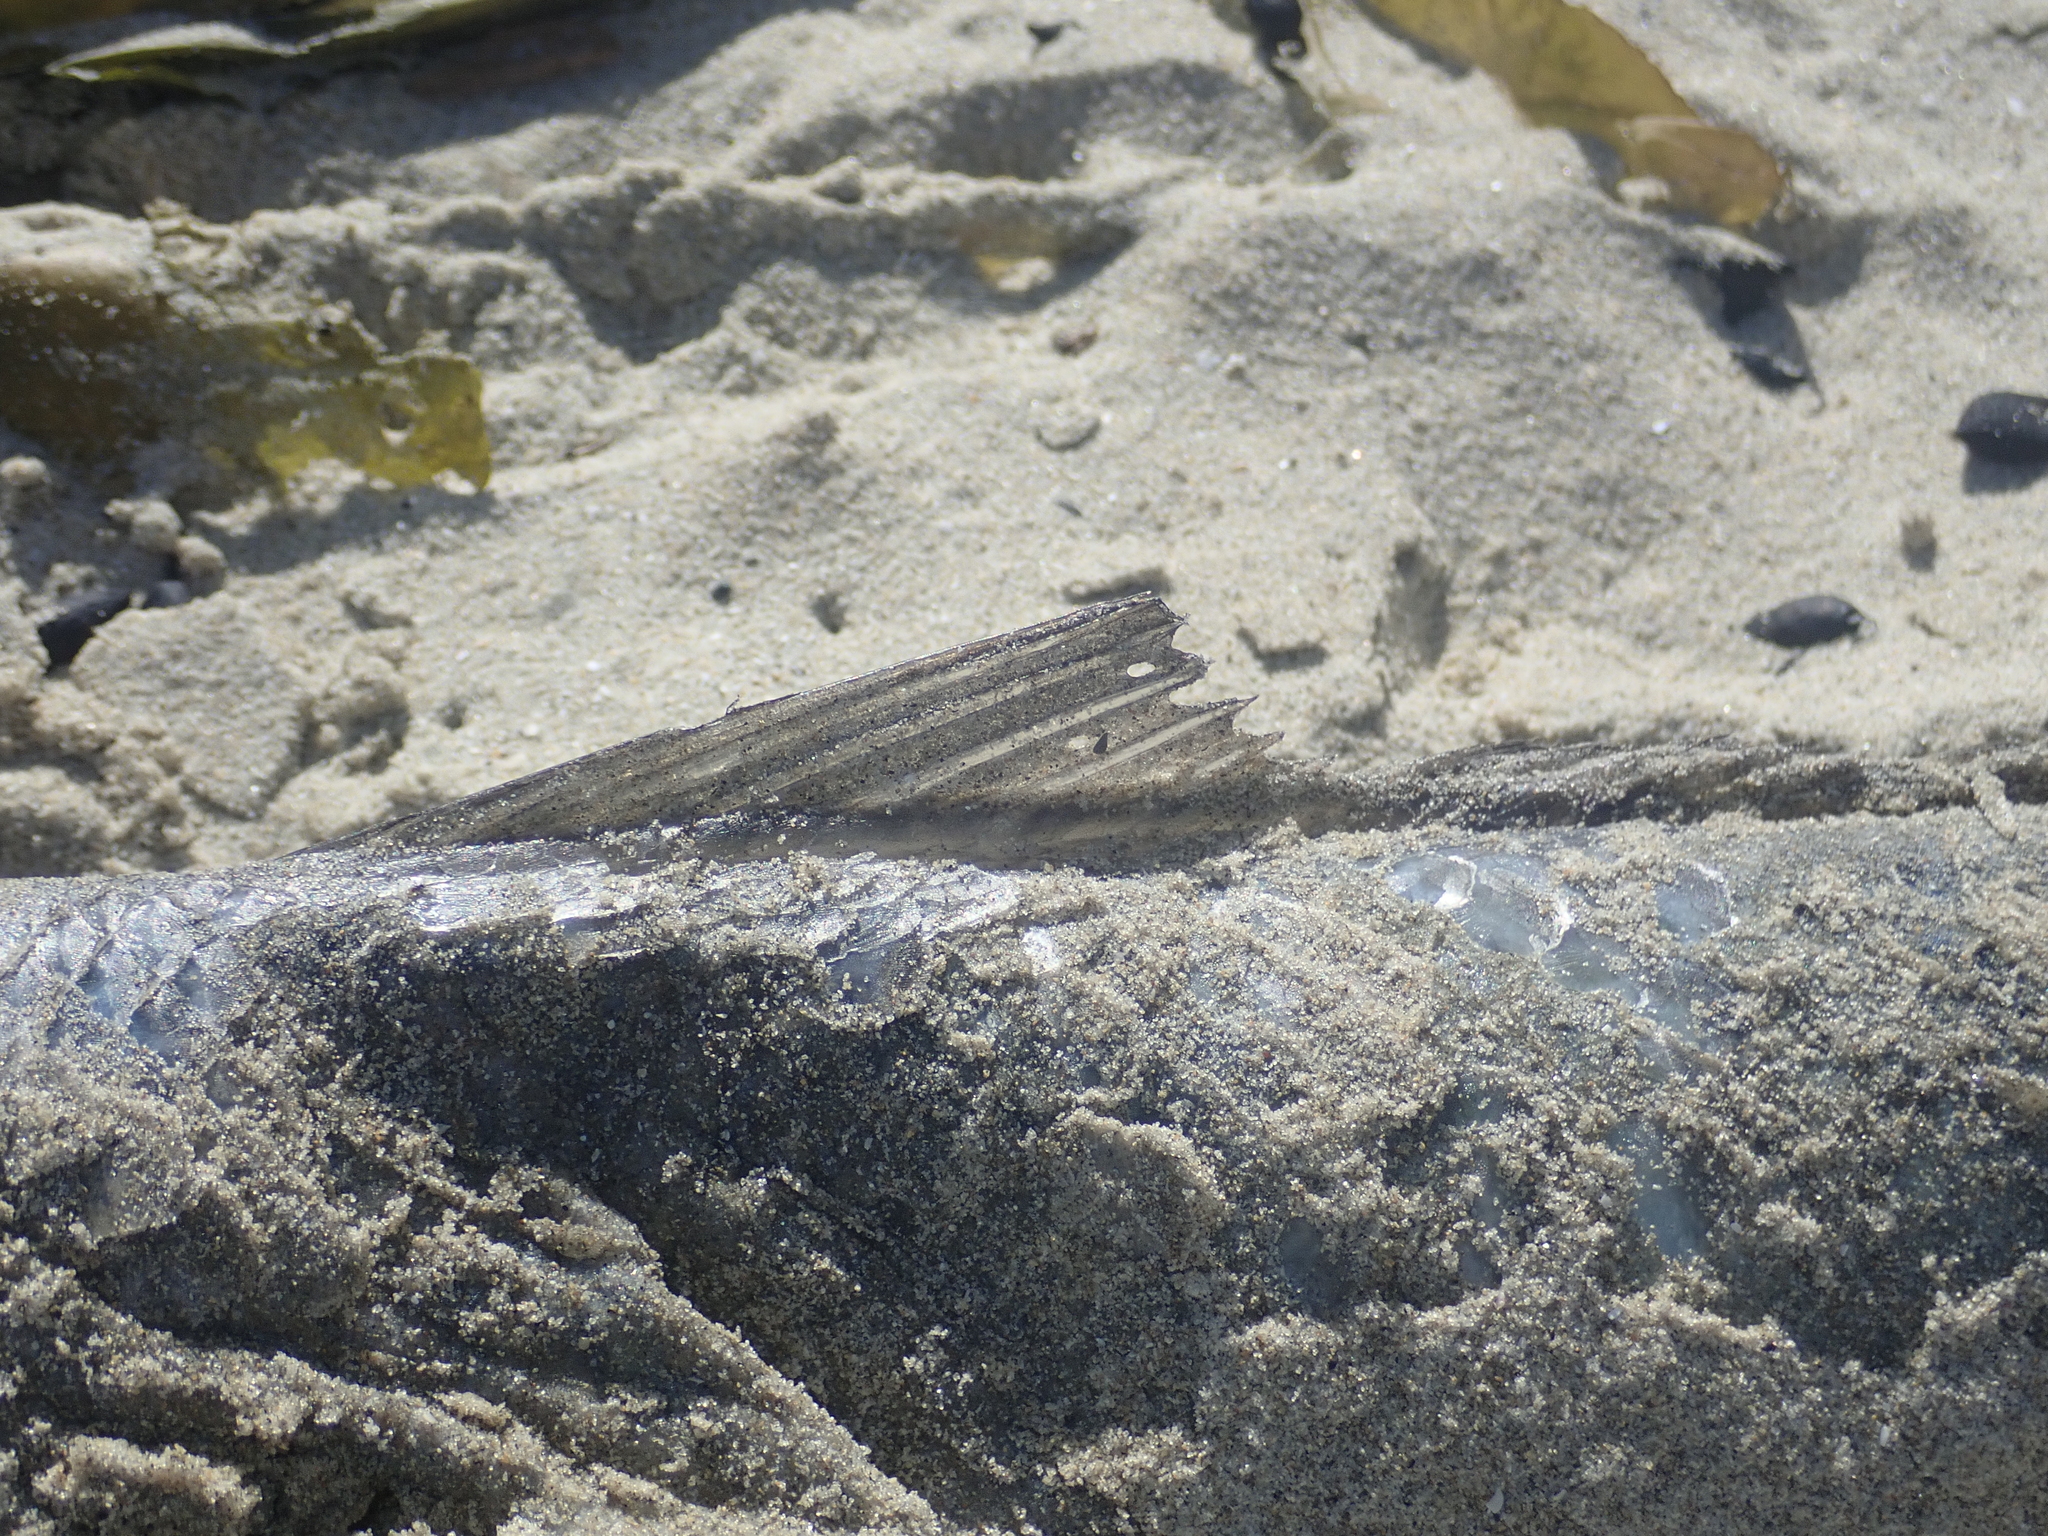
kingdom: Animalia
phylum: Chordata
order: Perciformes
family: Arripidae
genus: Arripis
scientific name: Arripis trutta
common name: Kahawai
